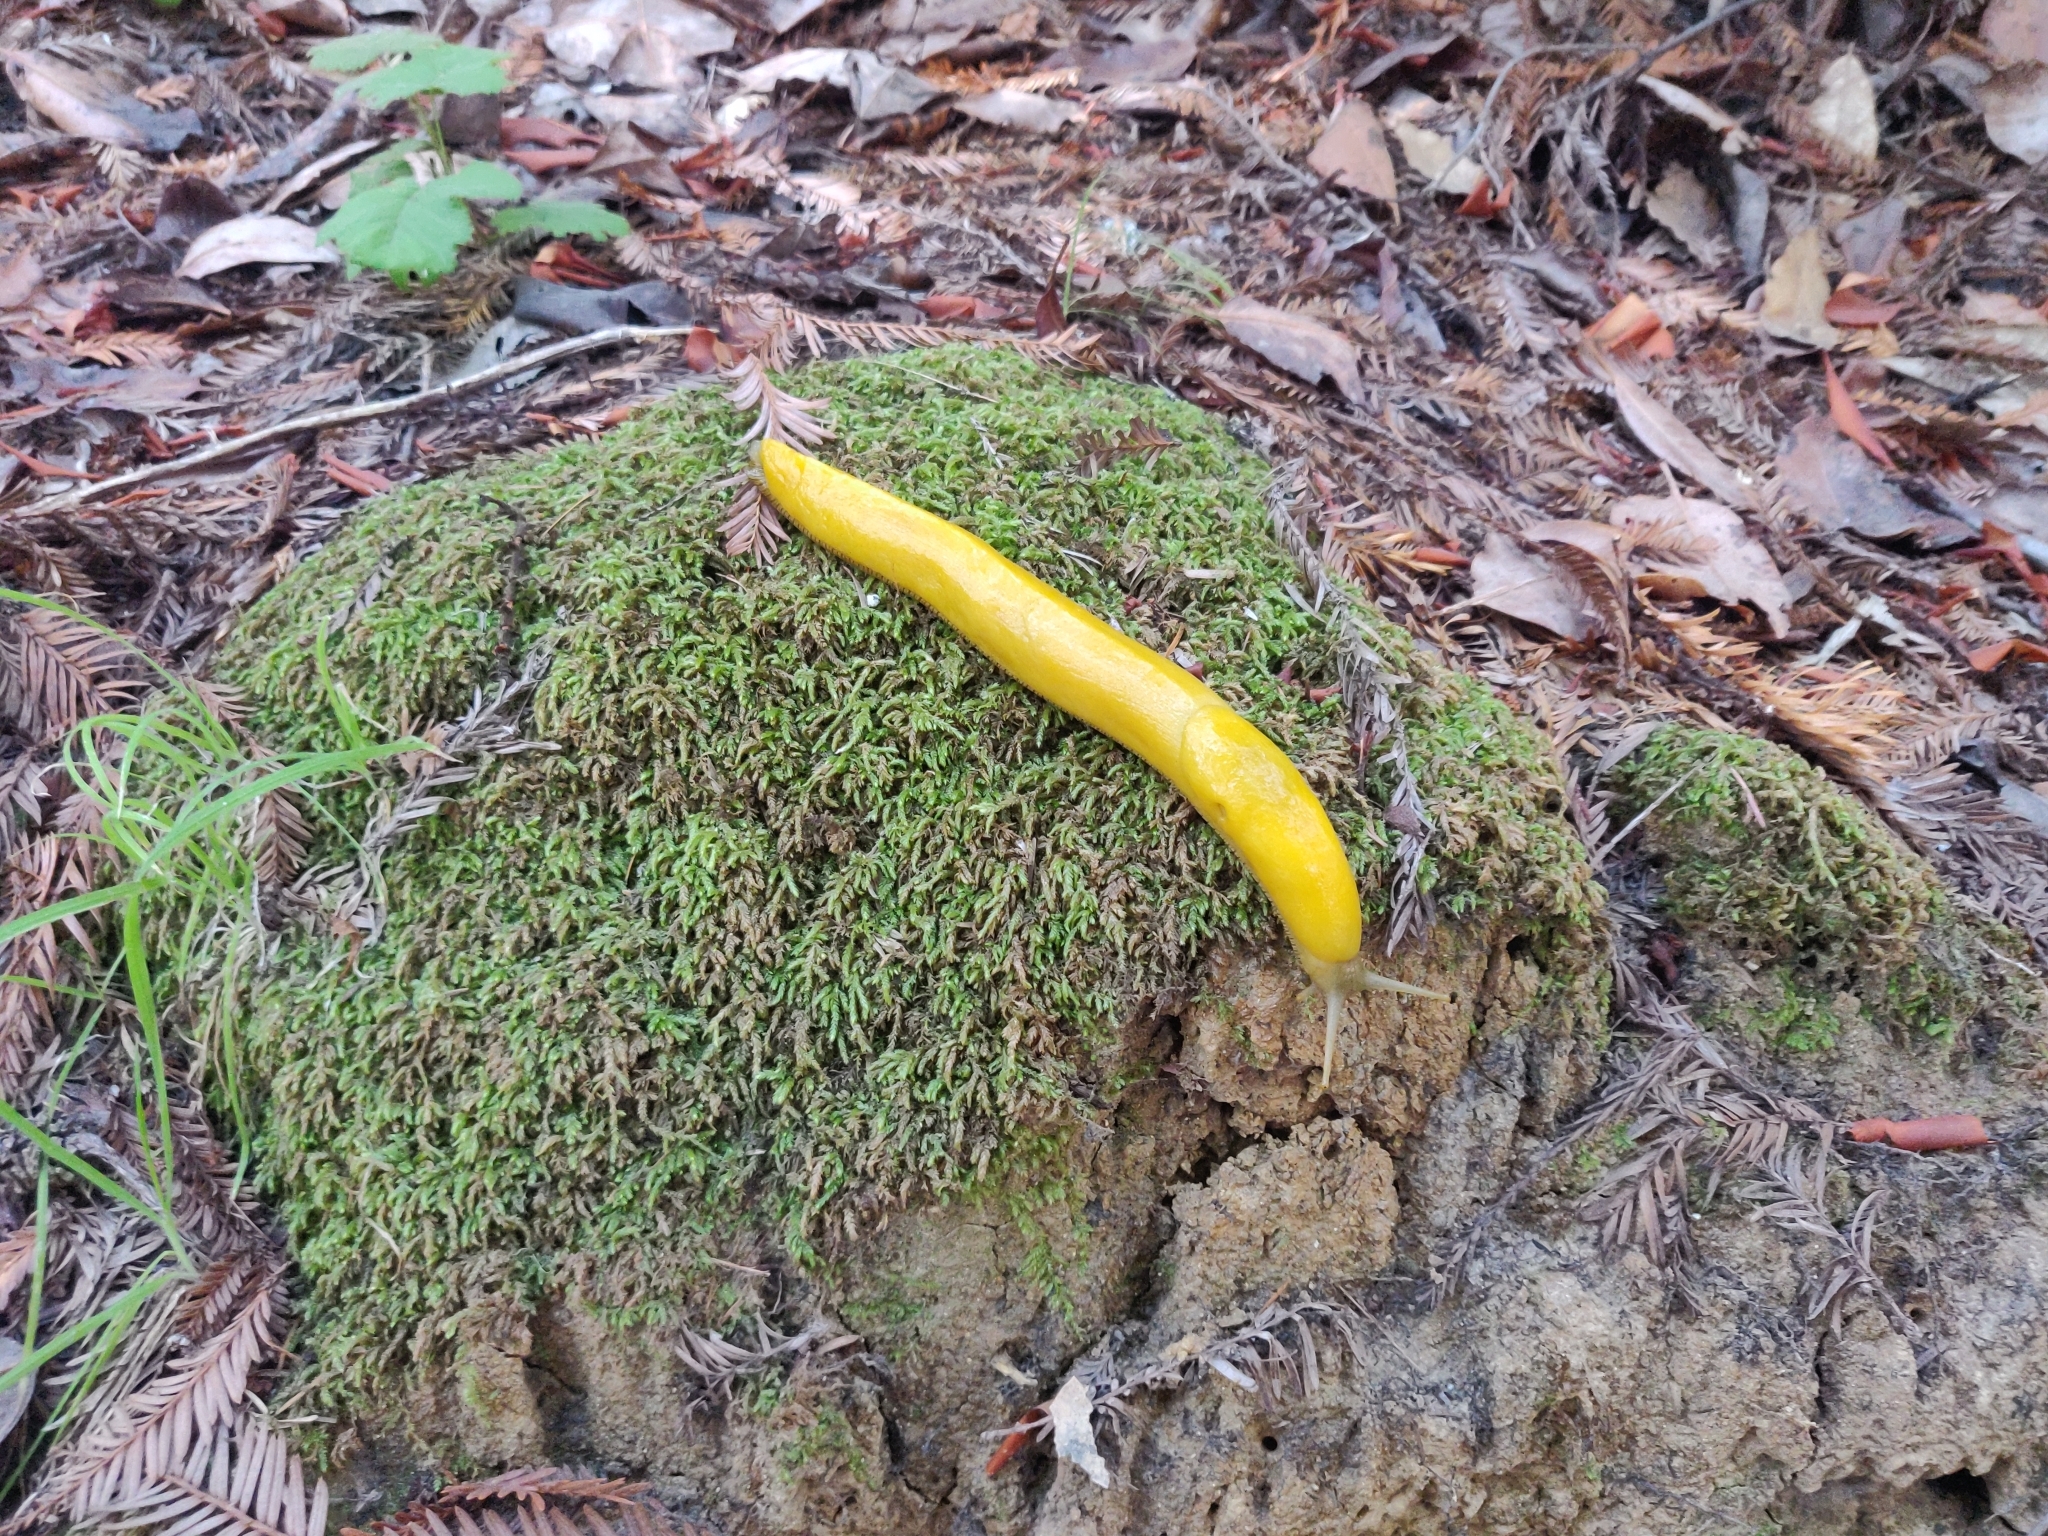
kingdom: Animalia
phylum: Mollusca
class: Gastropoda
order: Stylommatophora
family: Ariolimacidae
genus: Ariolimax
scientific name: Ariolimax californicus
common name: California banana slug
